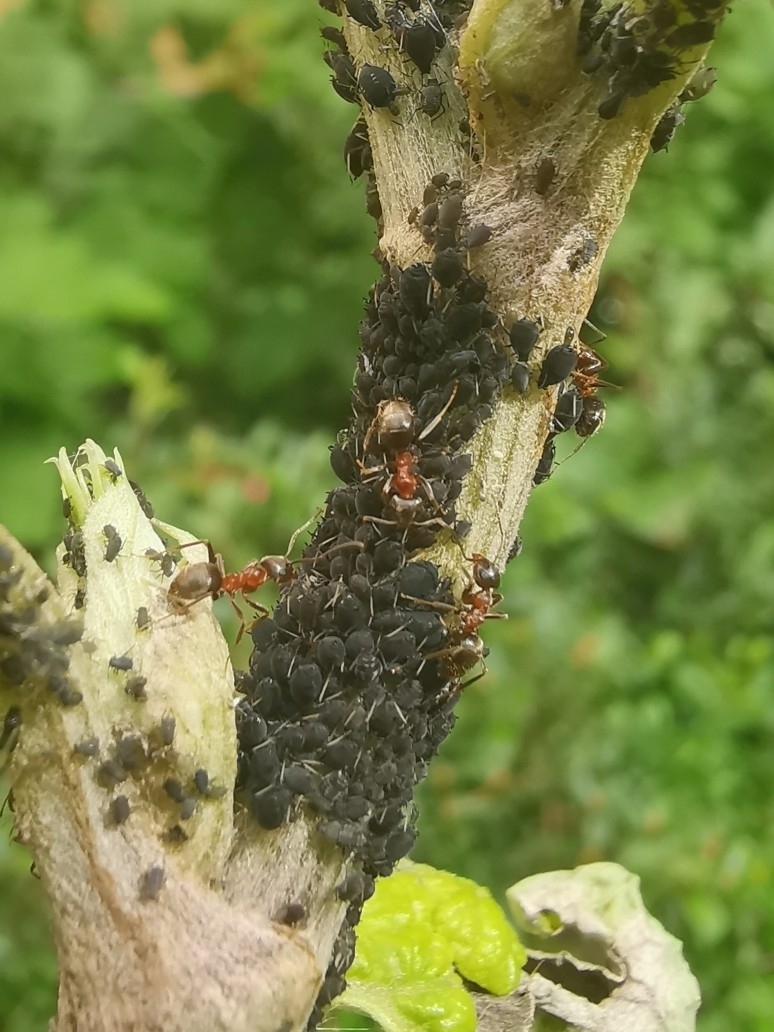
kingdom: Animalia
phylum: Arthropoda
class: Insecta
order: Hymenoptera
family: Formicidae
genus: Lasius
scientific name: Lasius emarginatus
